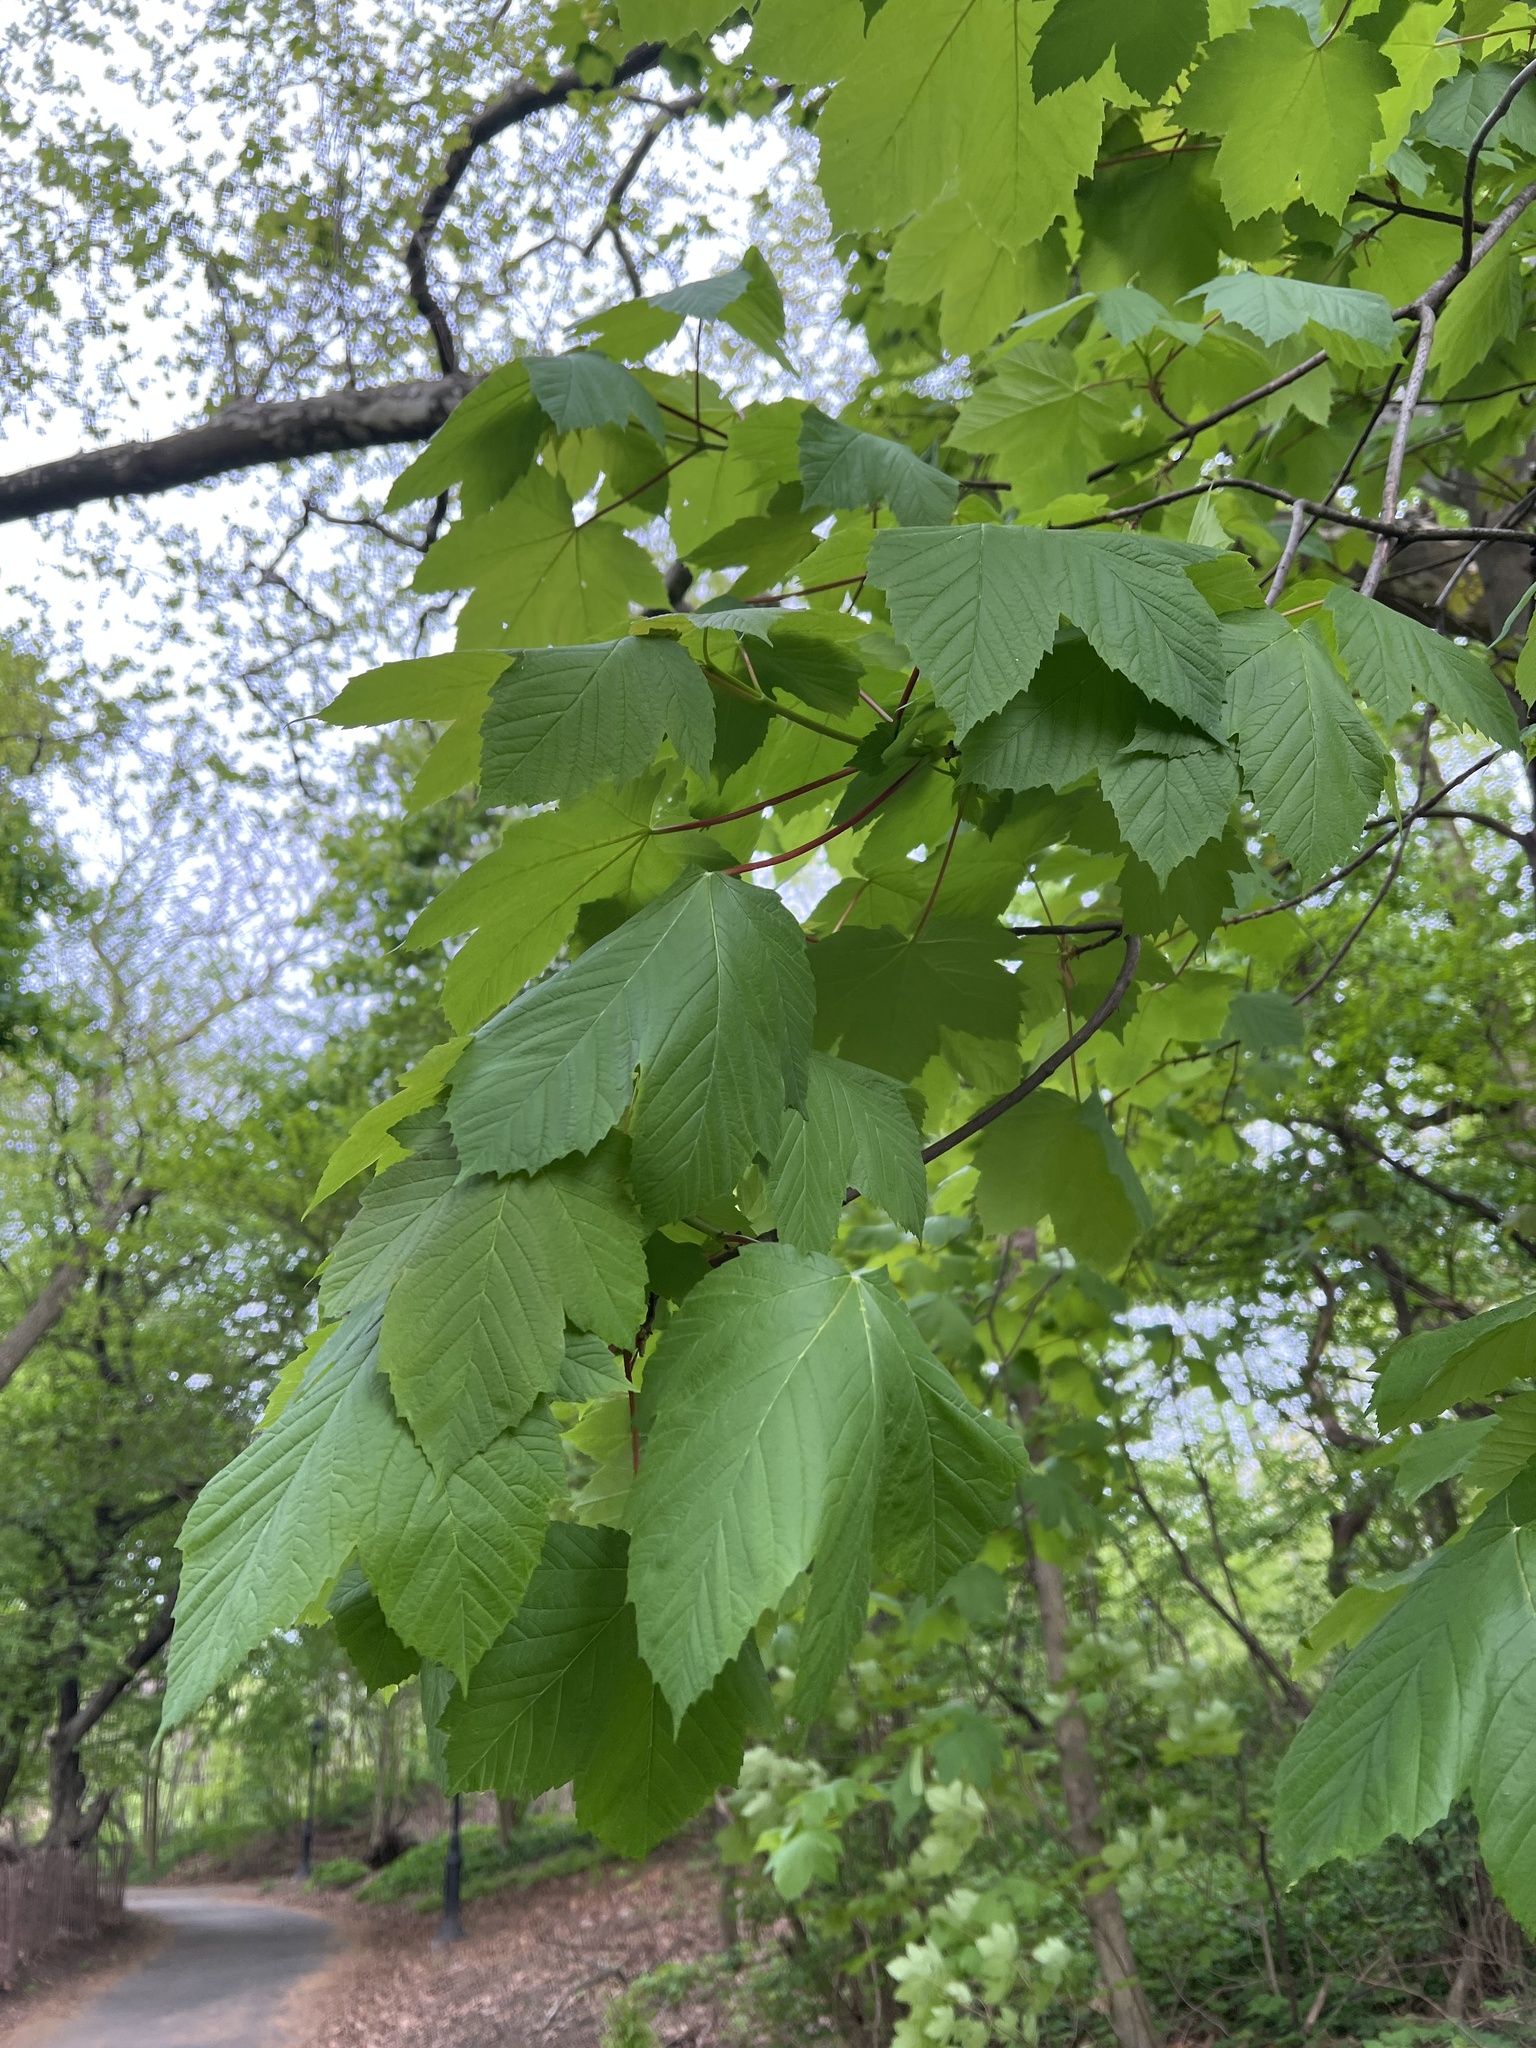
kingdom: Plantae
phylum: Tracheophyta
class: Magnoliopsida
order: Sapindales
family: Sapindaceae
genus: Acer
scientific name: Acer pseudoplatanus
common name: Sycamore
